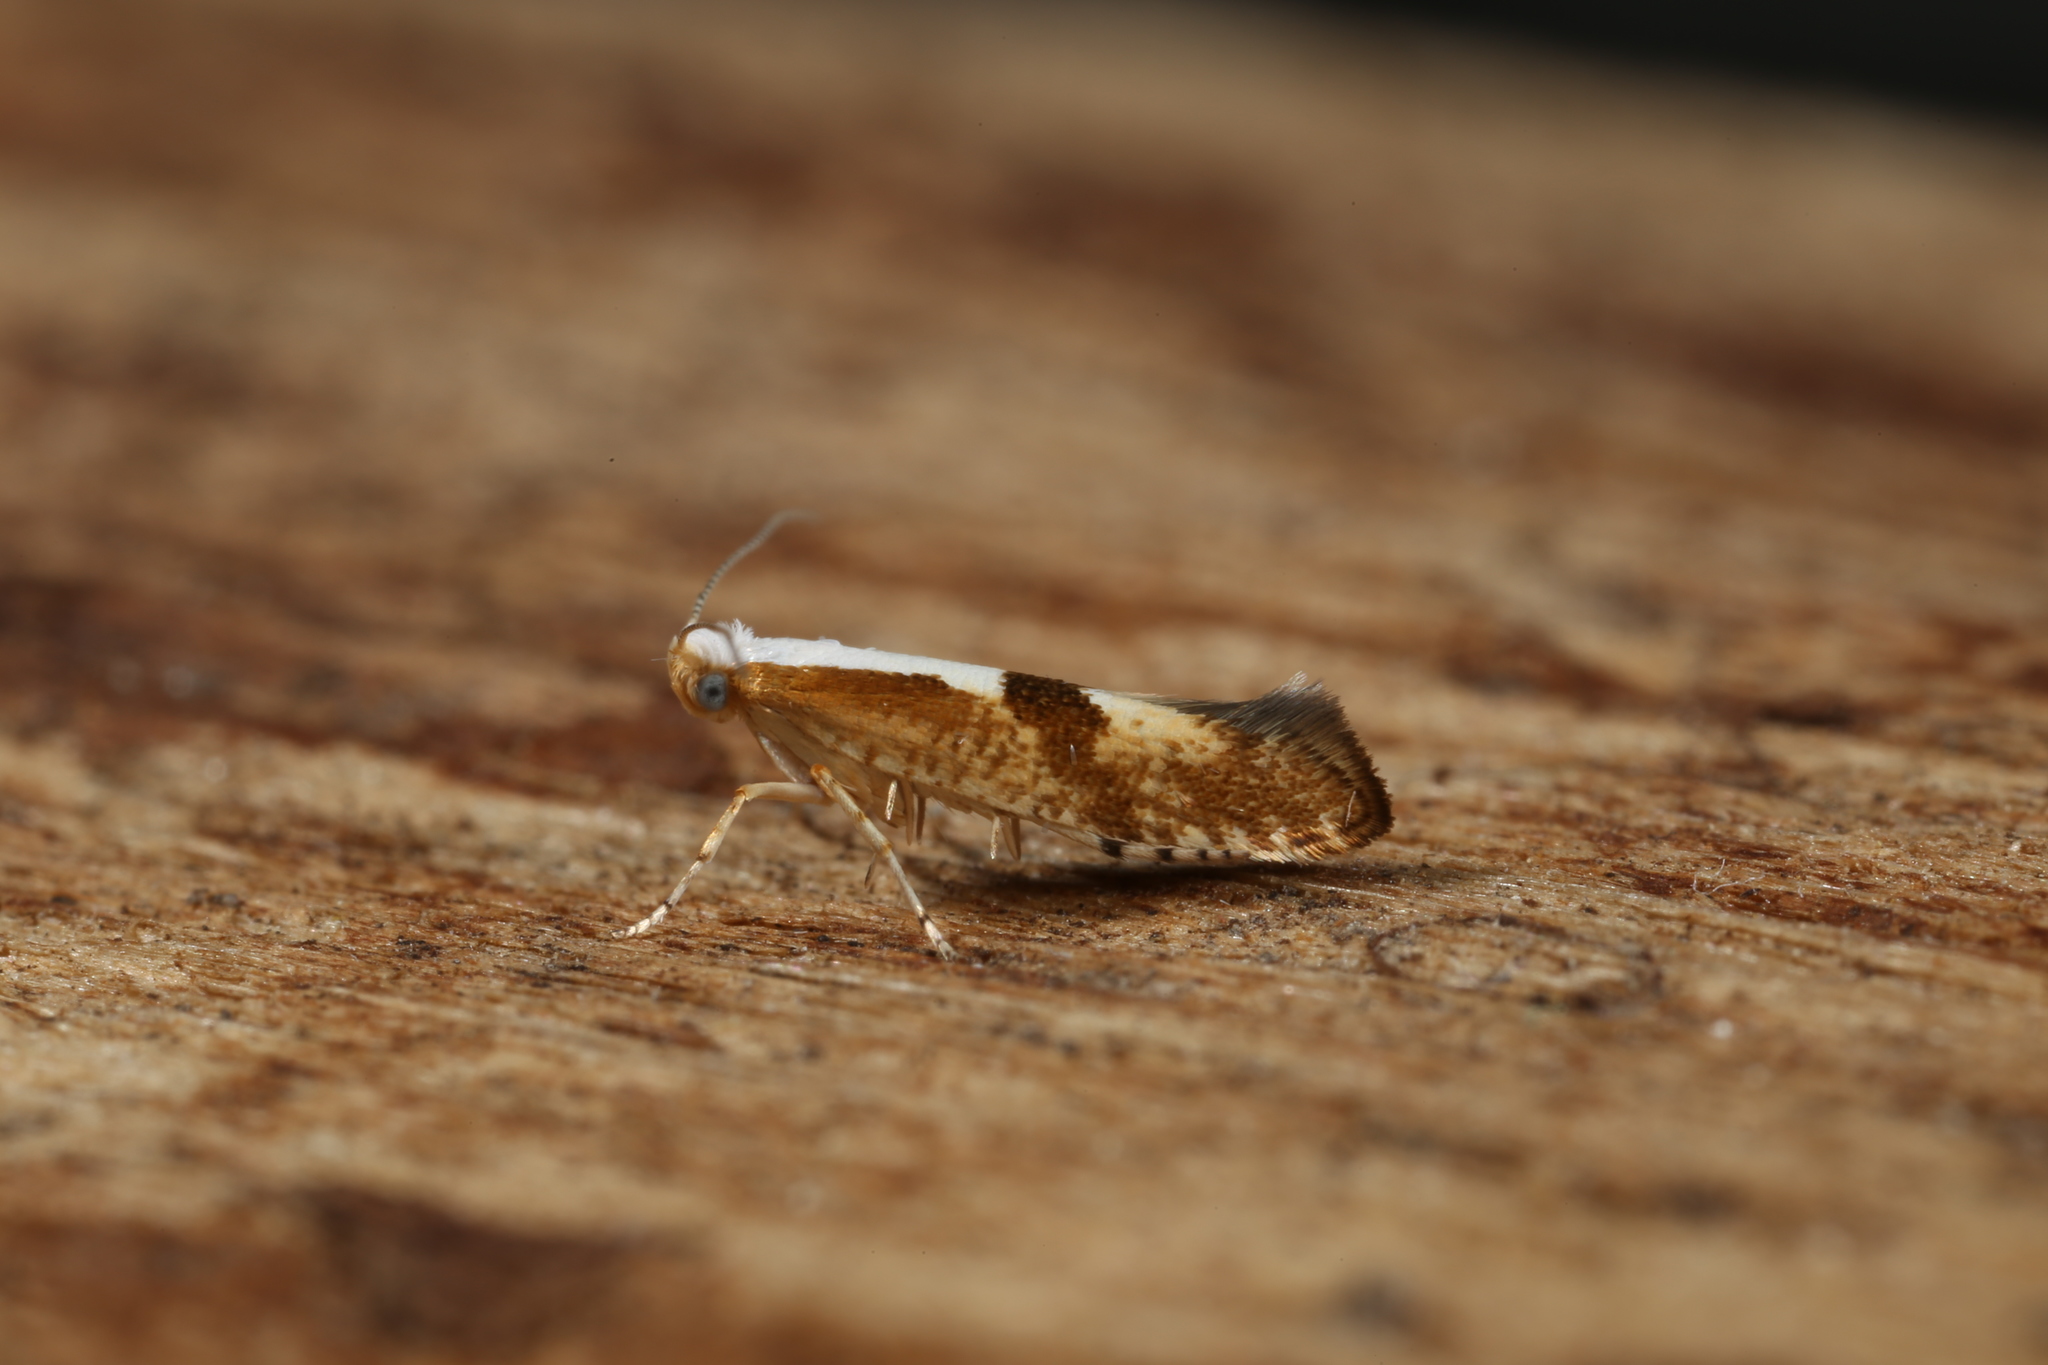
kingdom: Animalia
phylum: Arthropoda
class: Insecta
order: Lepidoptera
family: Argyresthiidae
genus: Argyresthia
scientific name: Argyresthia pruniella
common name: Cherry fruit moth
